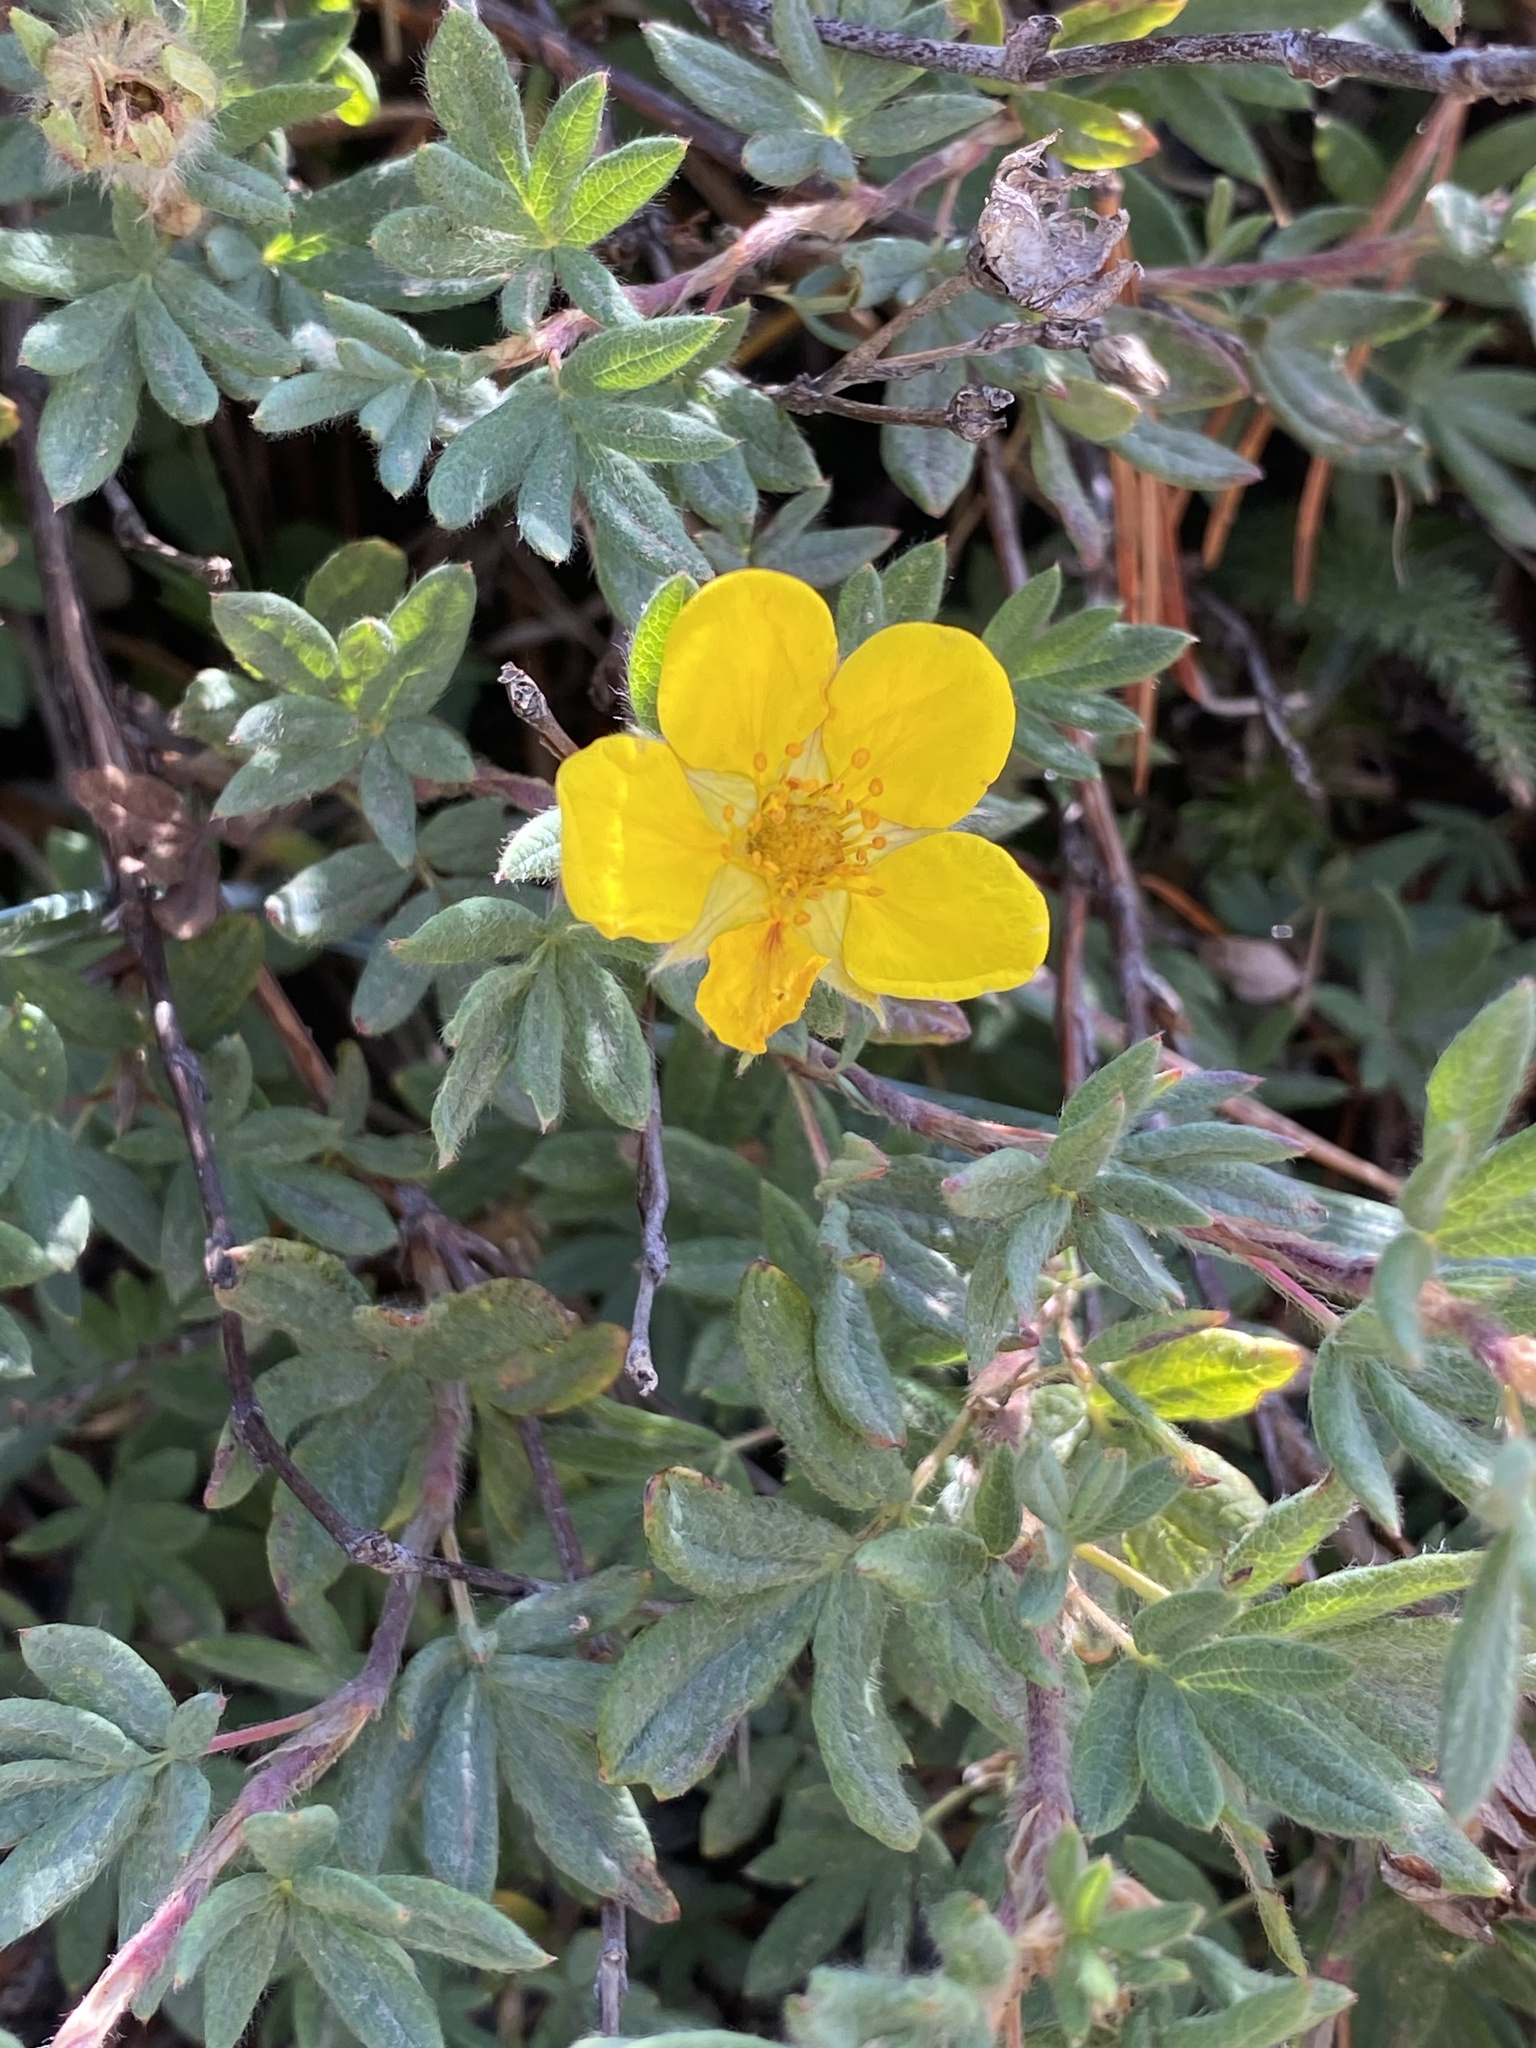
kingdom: Plantae
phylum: Tracheophyta
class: Magnoliopsida
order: Rosales
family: Rosaceae
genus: Dasiphora
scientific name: Dasiphora fruticosa
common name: Shrubby cinquefoil
